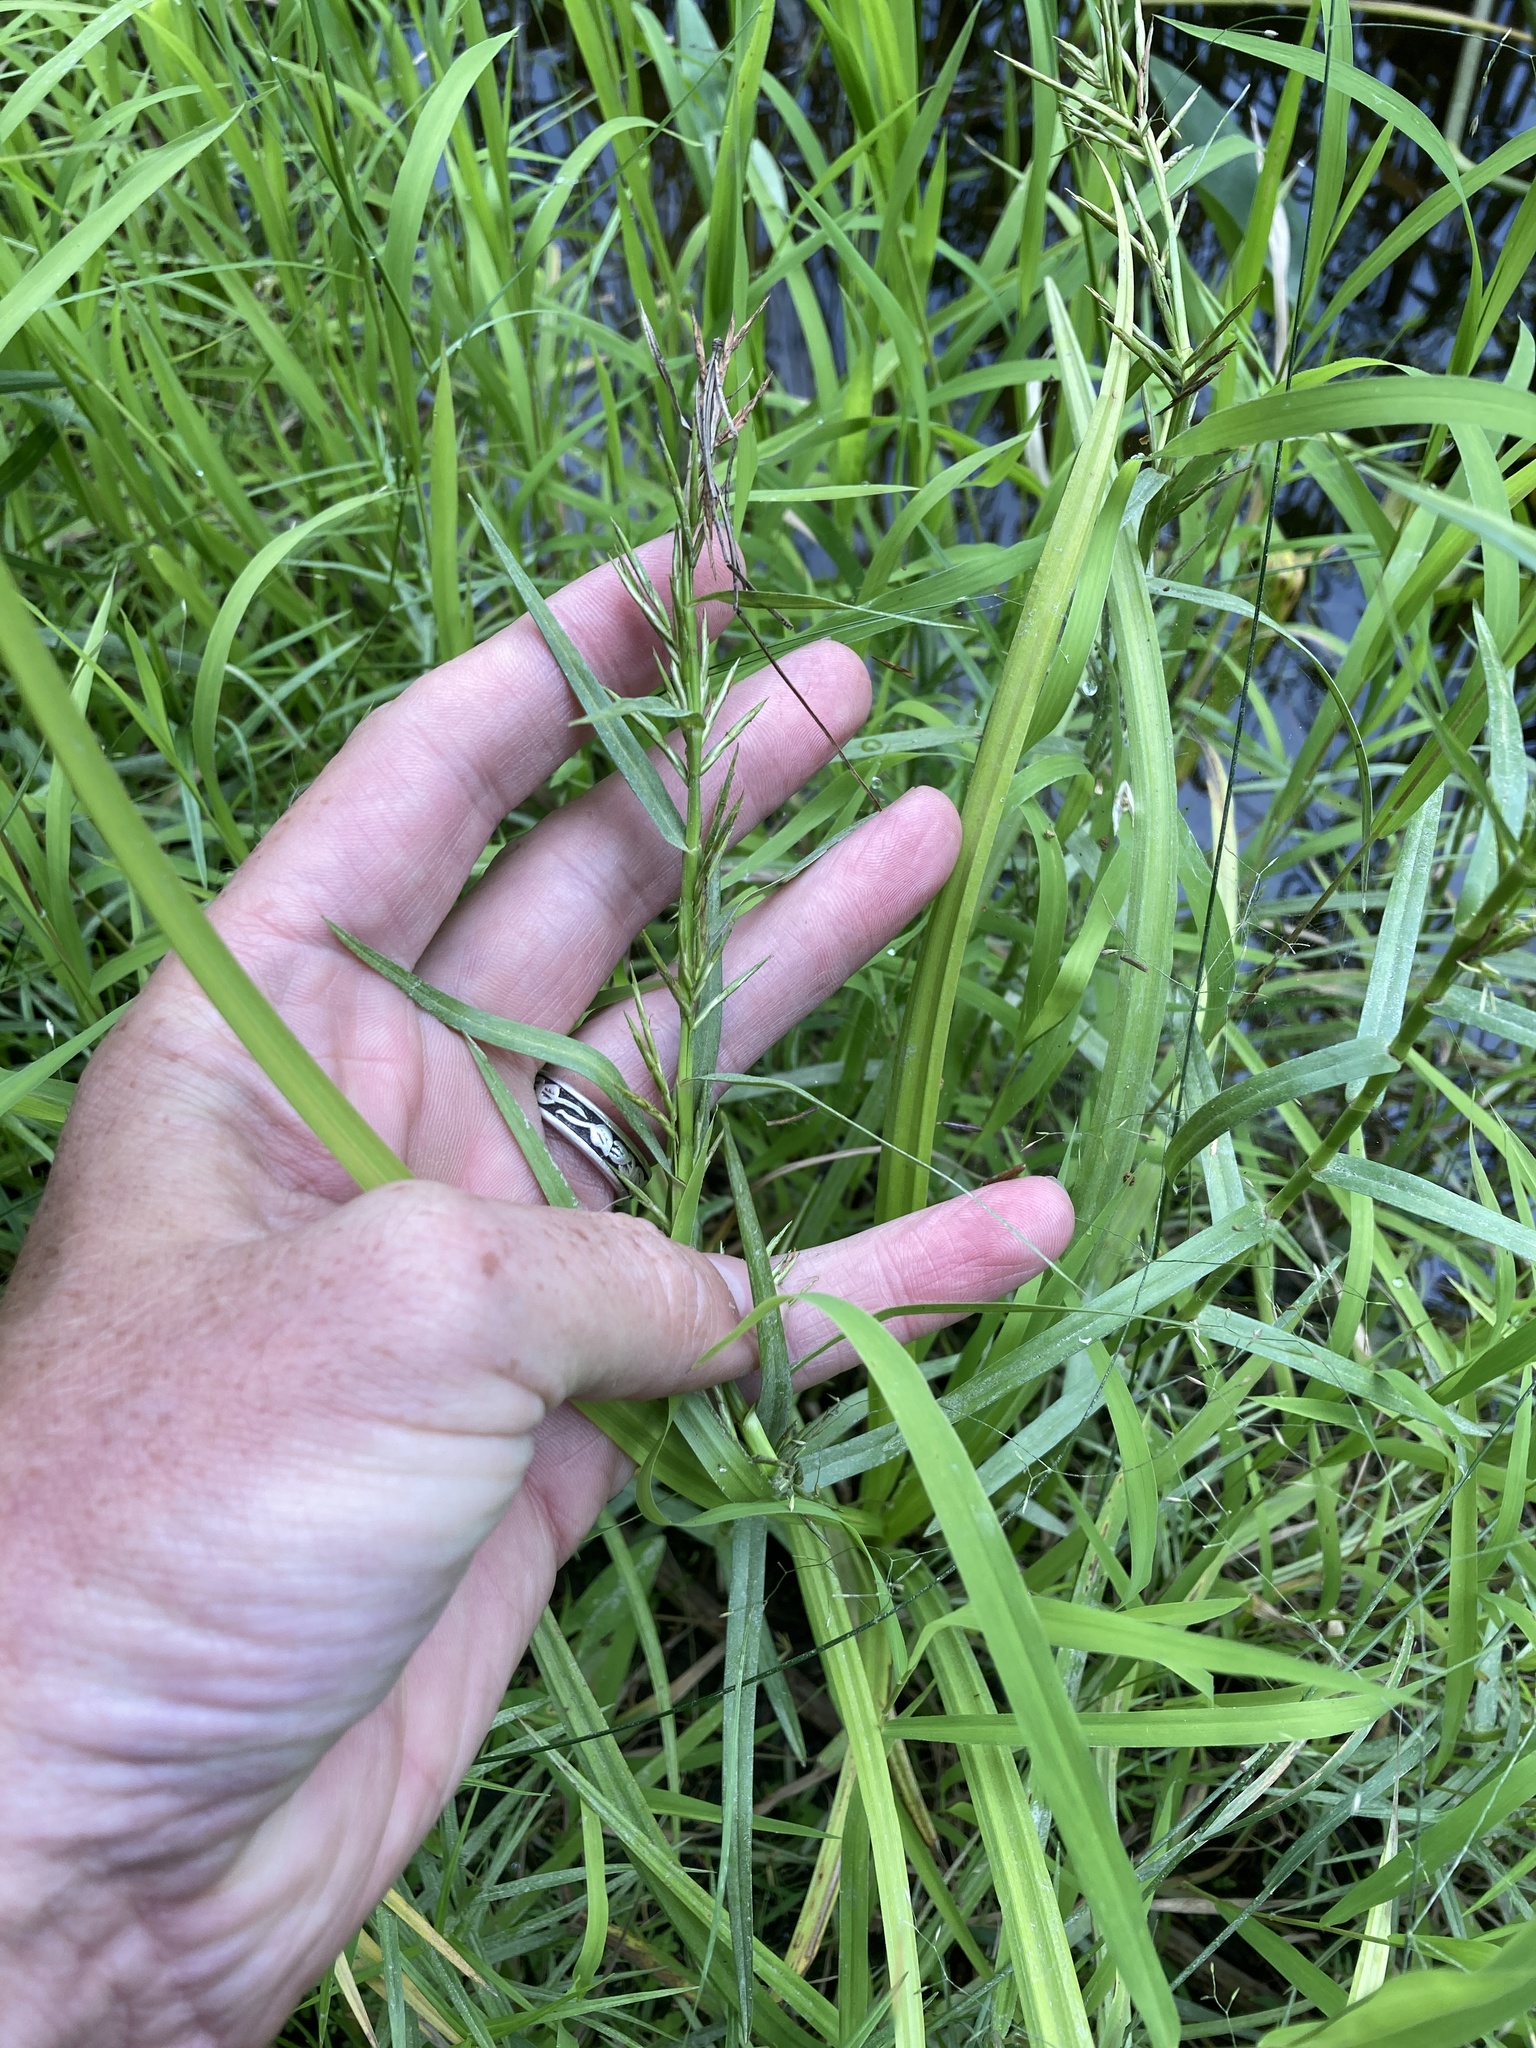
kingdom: Plantae
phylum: Tracheophyta
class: Liliopsida
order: Poales
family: Cyperaceae
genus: Dulichium
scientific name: Dulichium arundinaceum
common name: Three-way sedge
